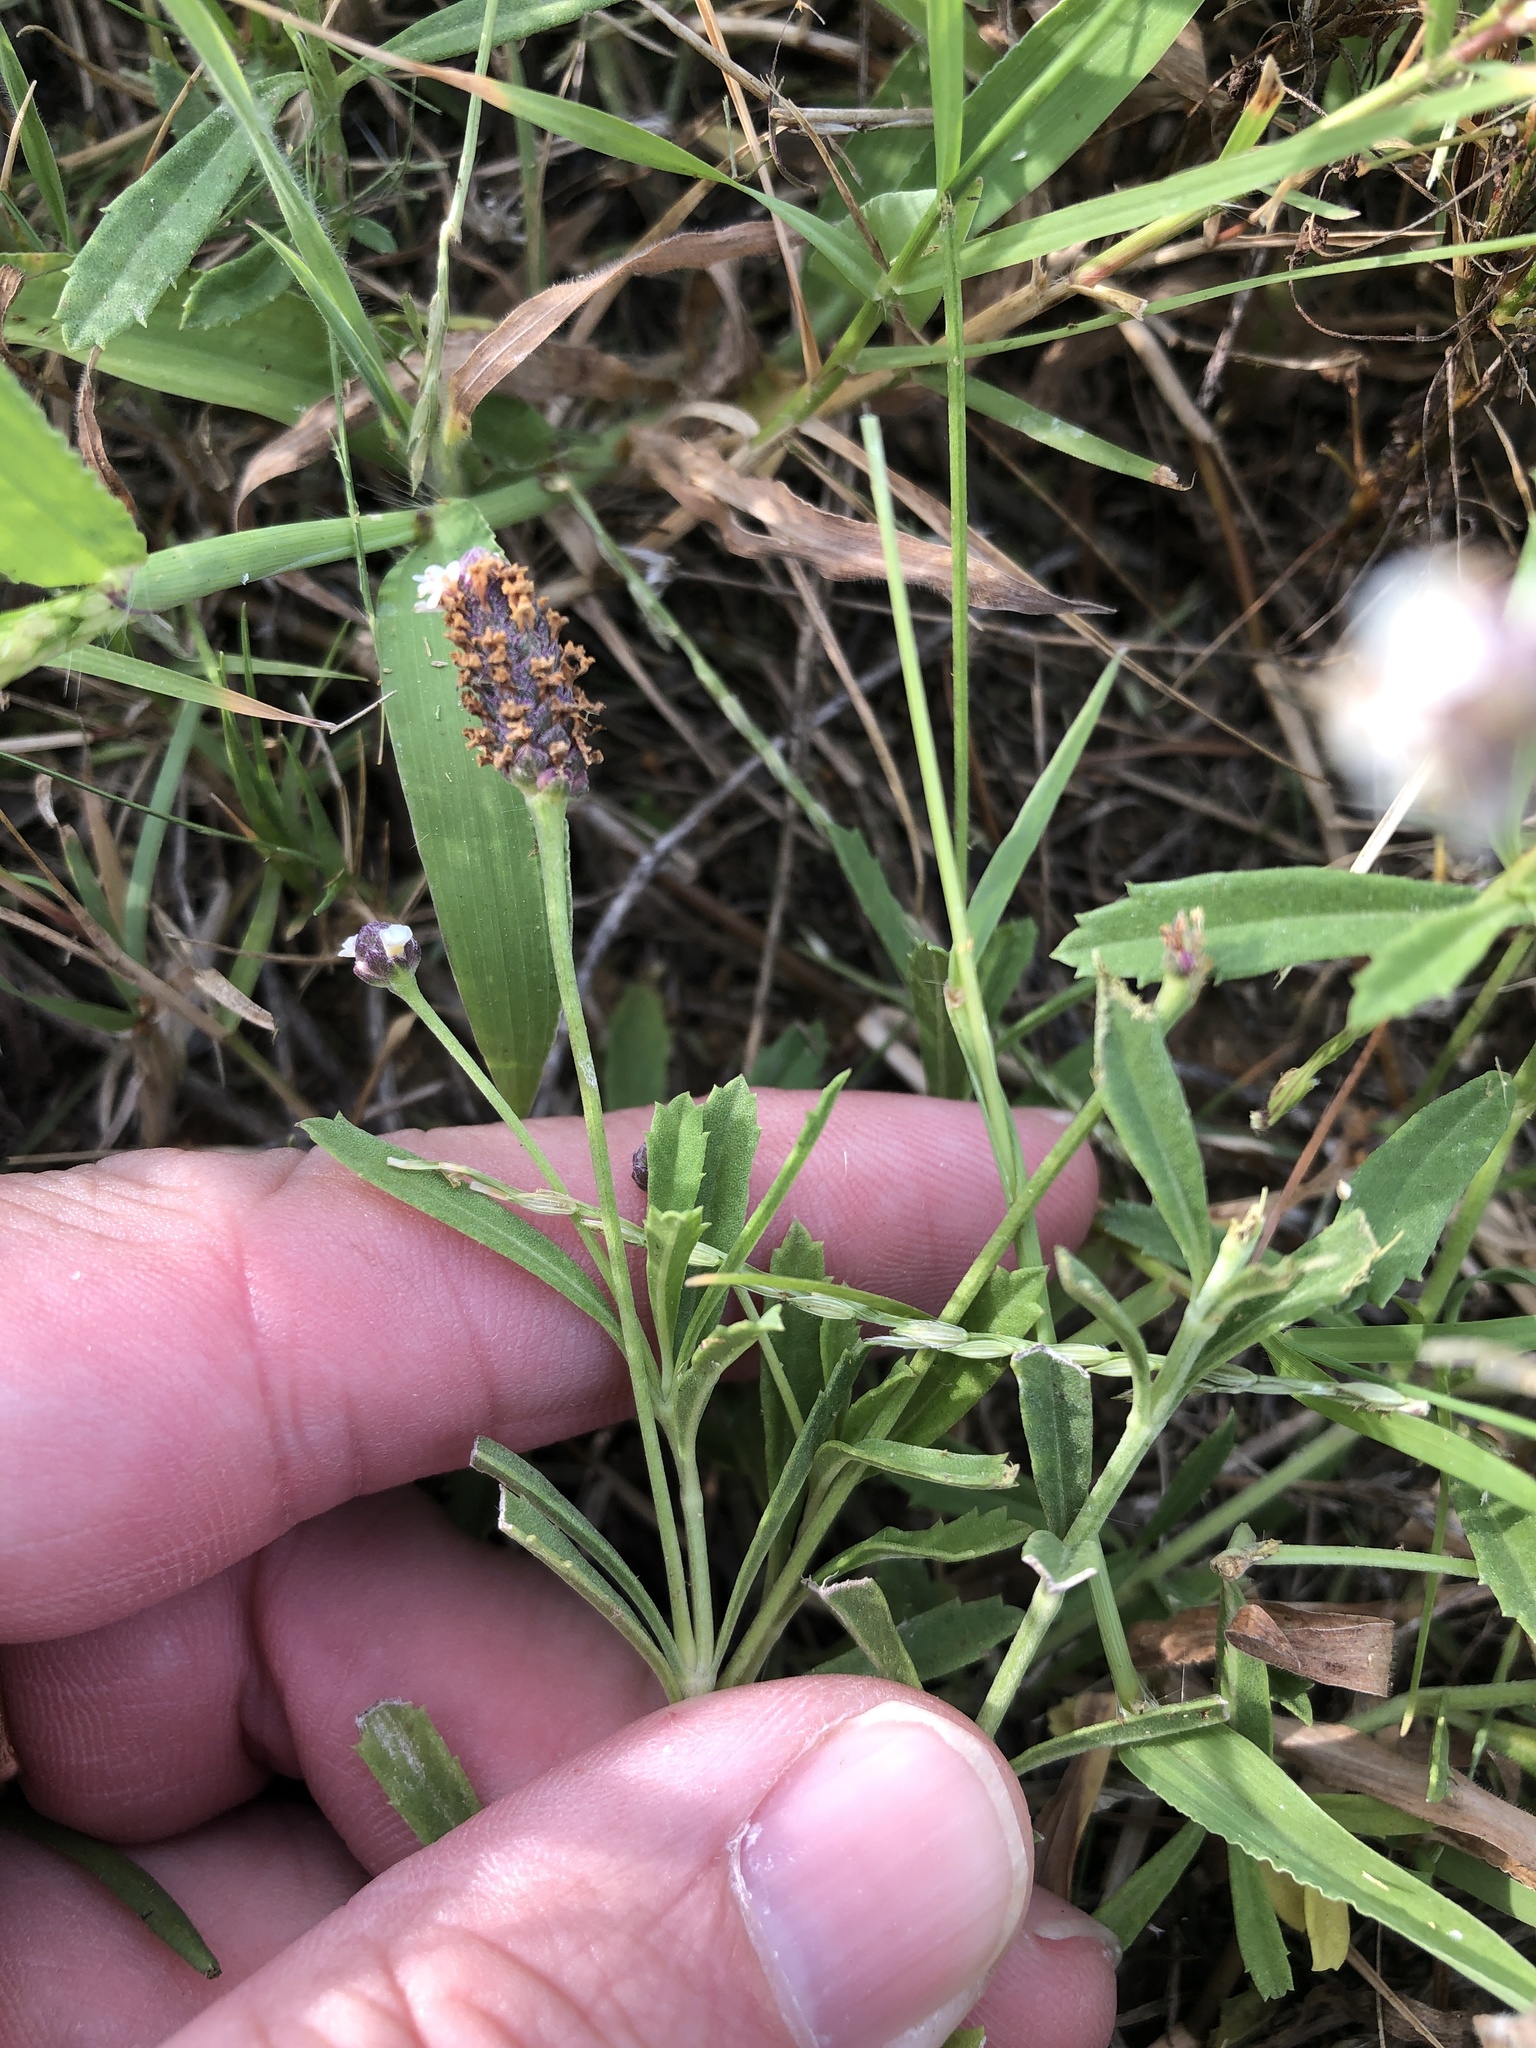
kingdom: Plantae
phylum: Tracheophyta
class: Magnoliopsida
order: Lamiales
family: Verbenaceae
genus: Phyla
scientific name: Phyla nodiflora
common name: Frogfruit
